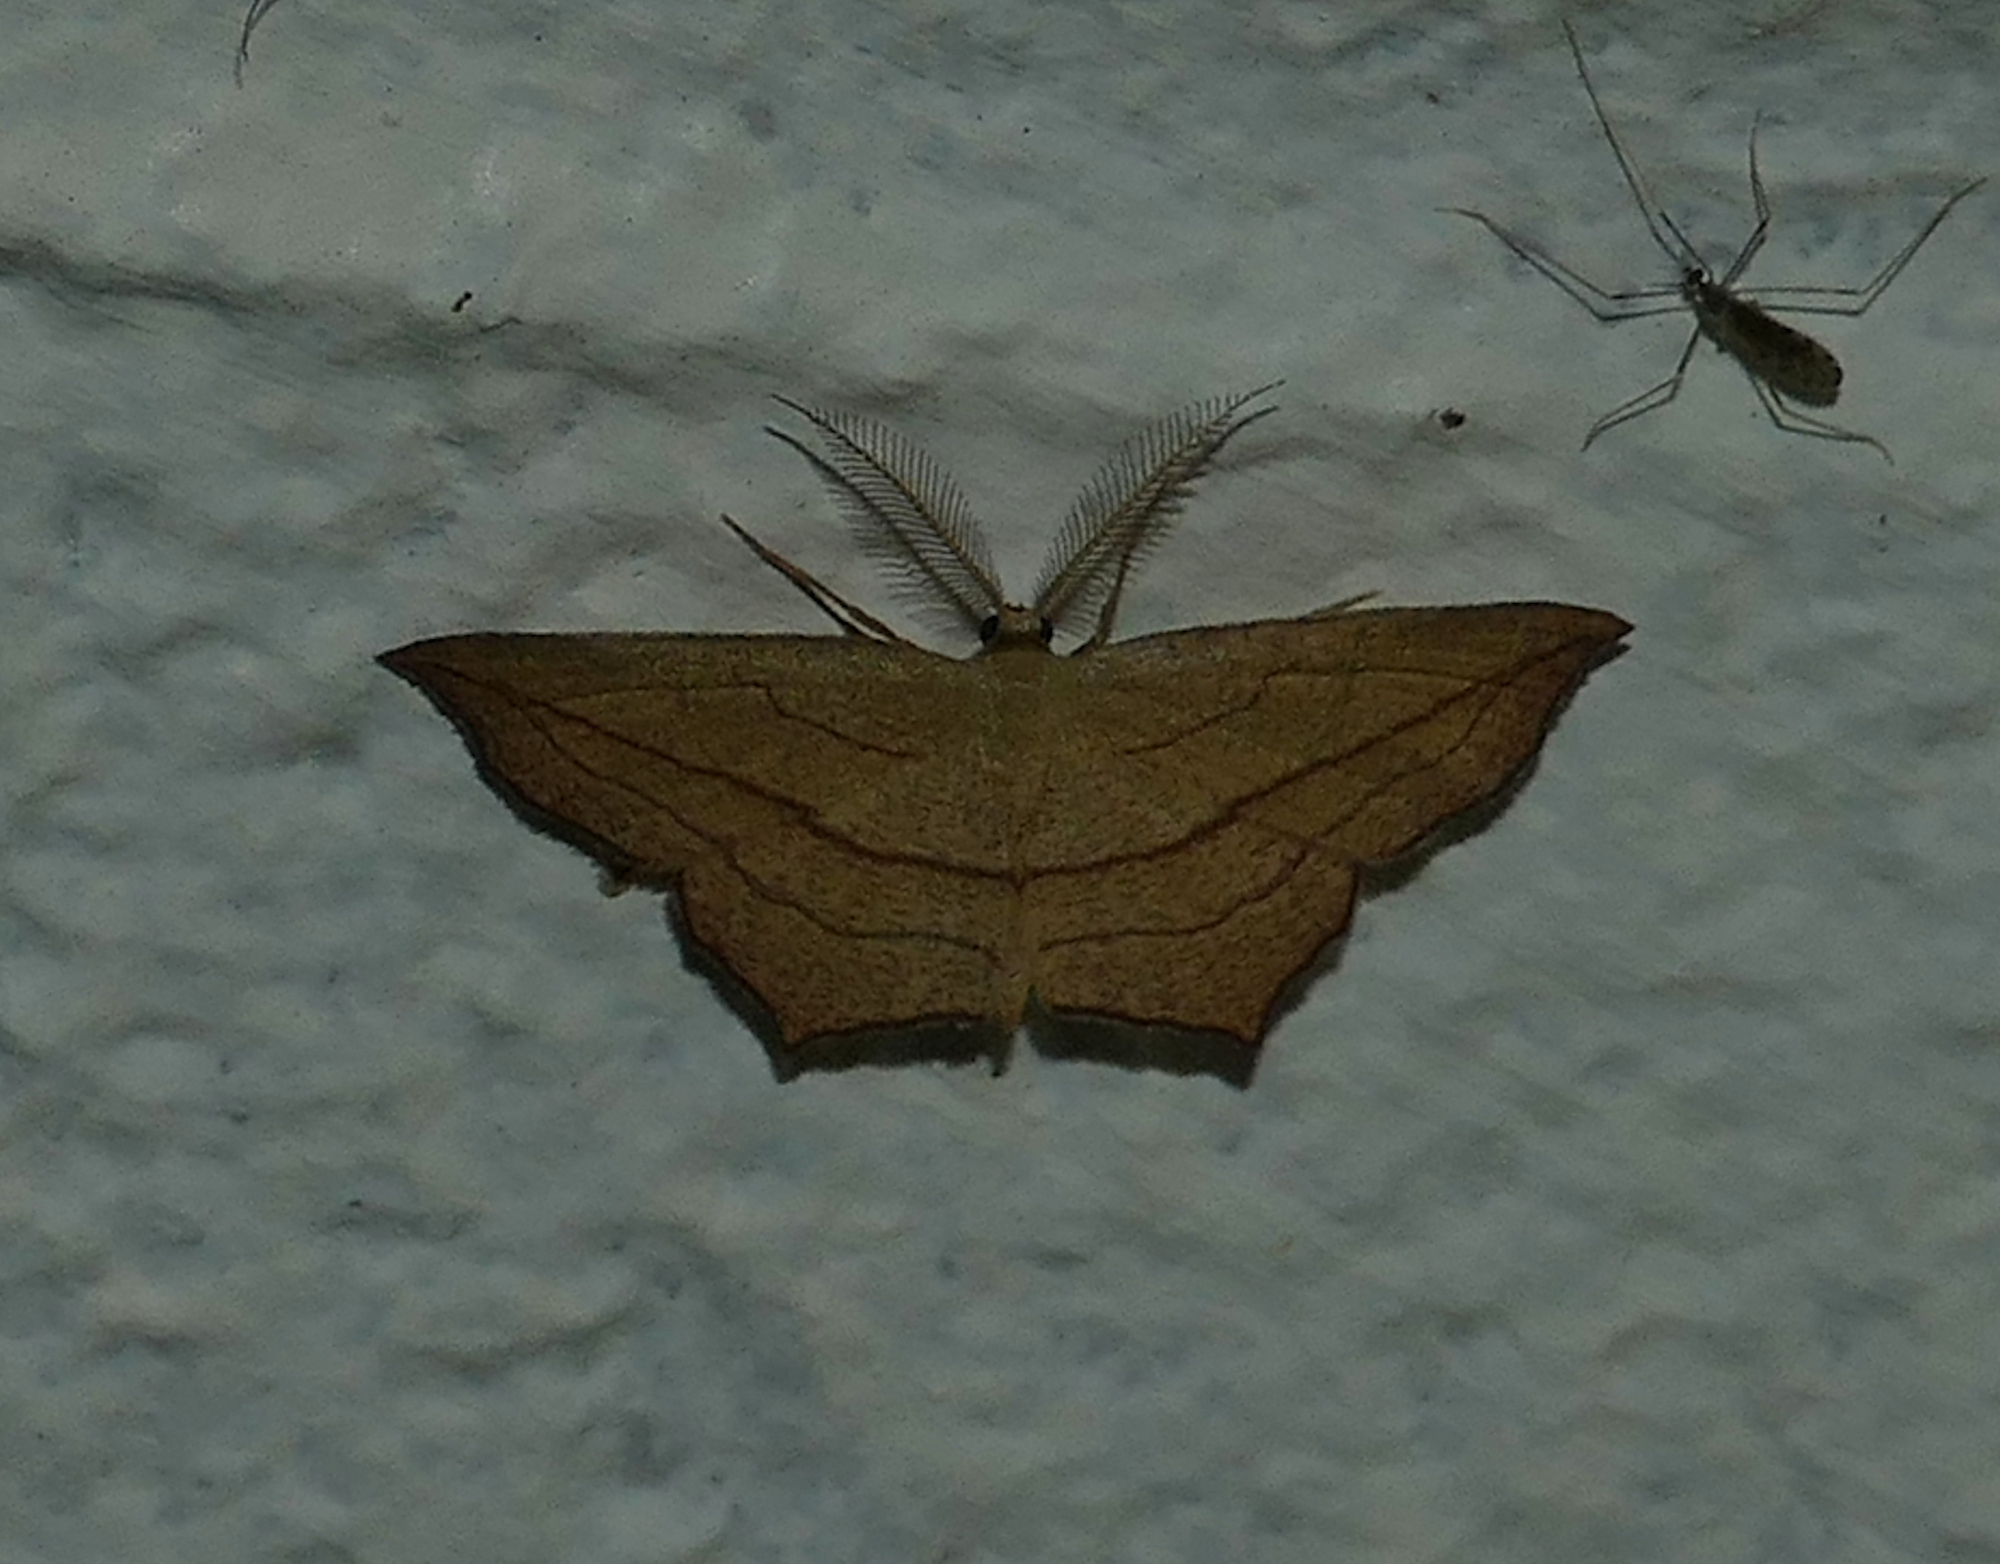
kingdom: Animalia
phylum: Arthropoda
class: Insecta
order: Lepidoptera
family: Geometridae
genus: Timandra
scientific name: Timandra amaturaria
